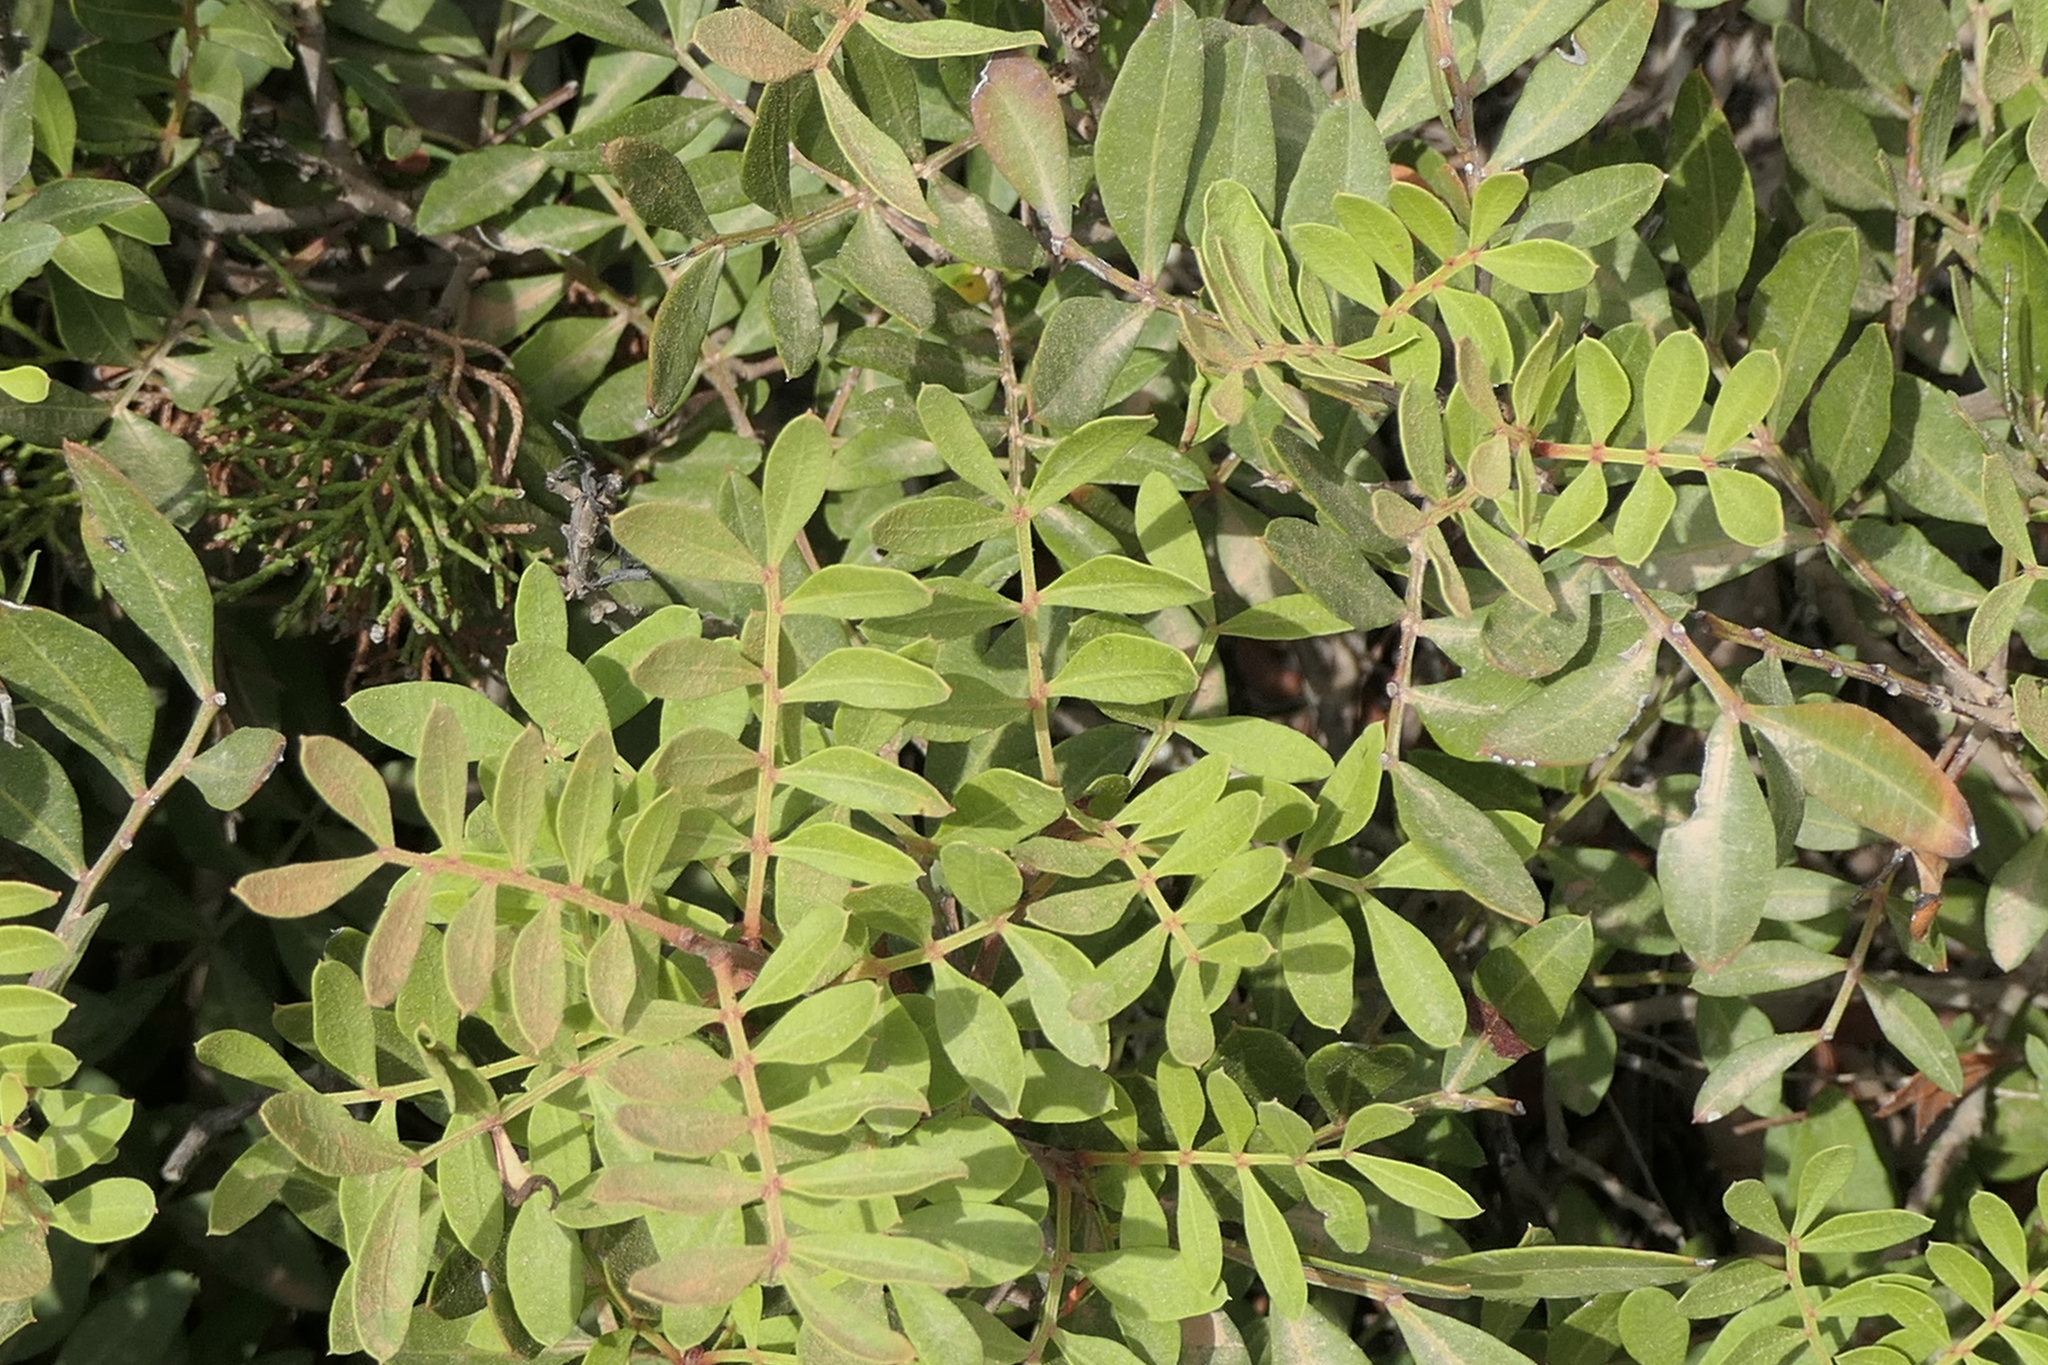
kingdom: Plantae
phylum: Tracheophyta
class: Magnoliopsida
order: Sapindales
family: Anacardiaceae
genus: Pistacia
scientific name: Pistacia lentiscus
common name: Lentisk
